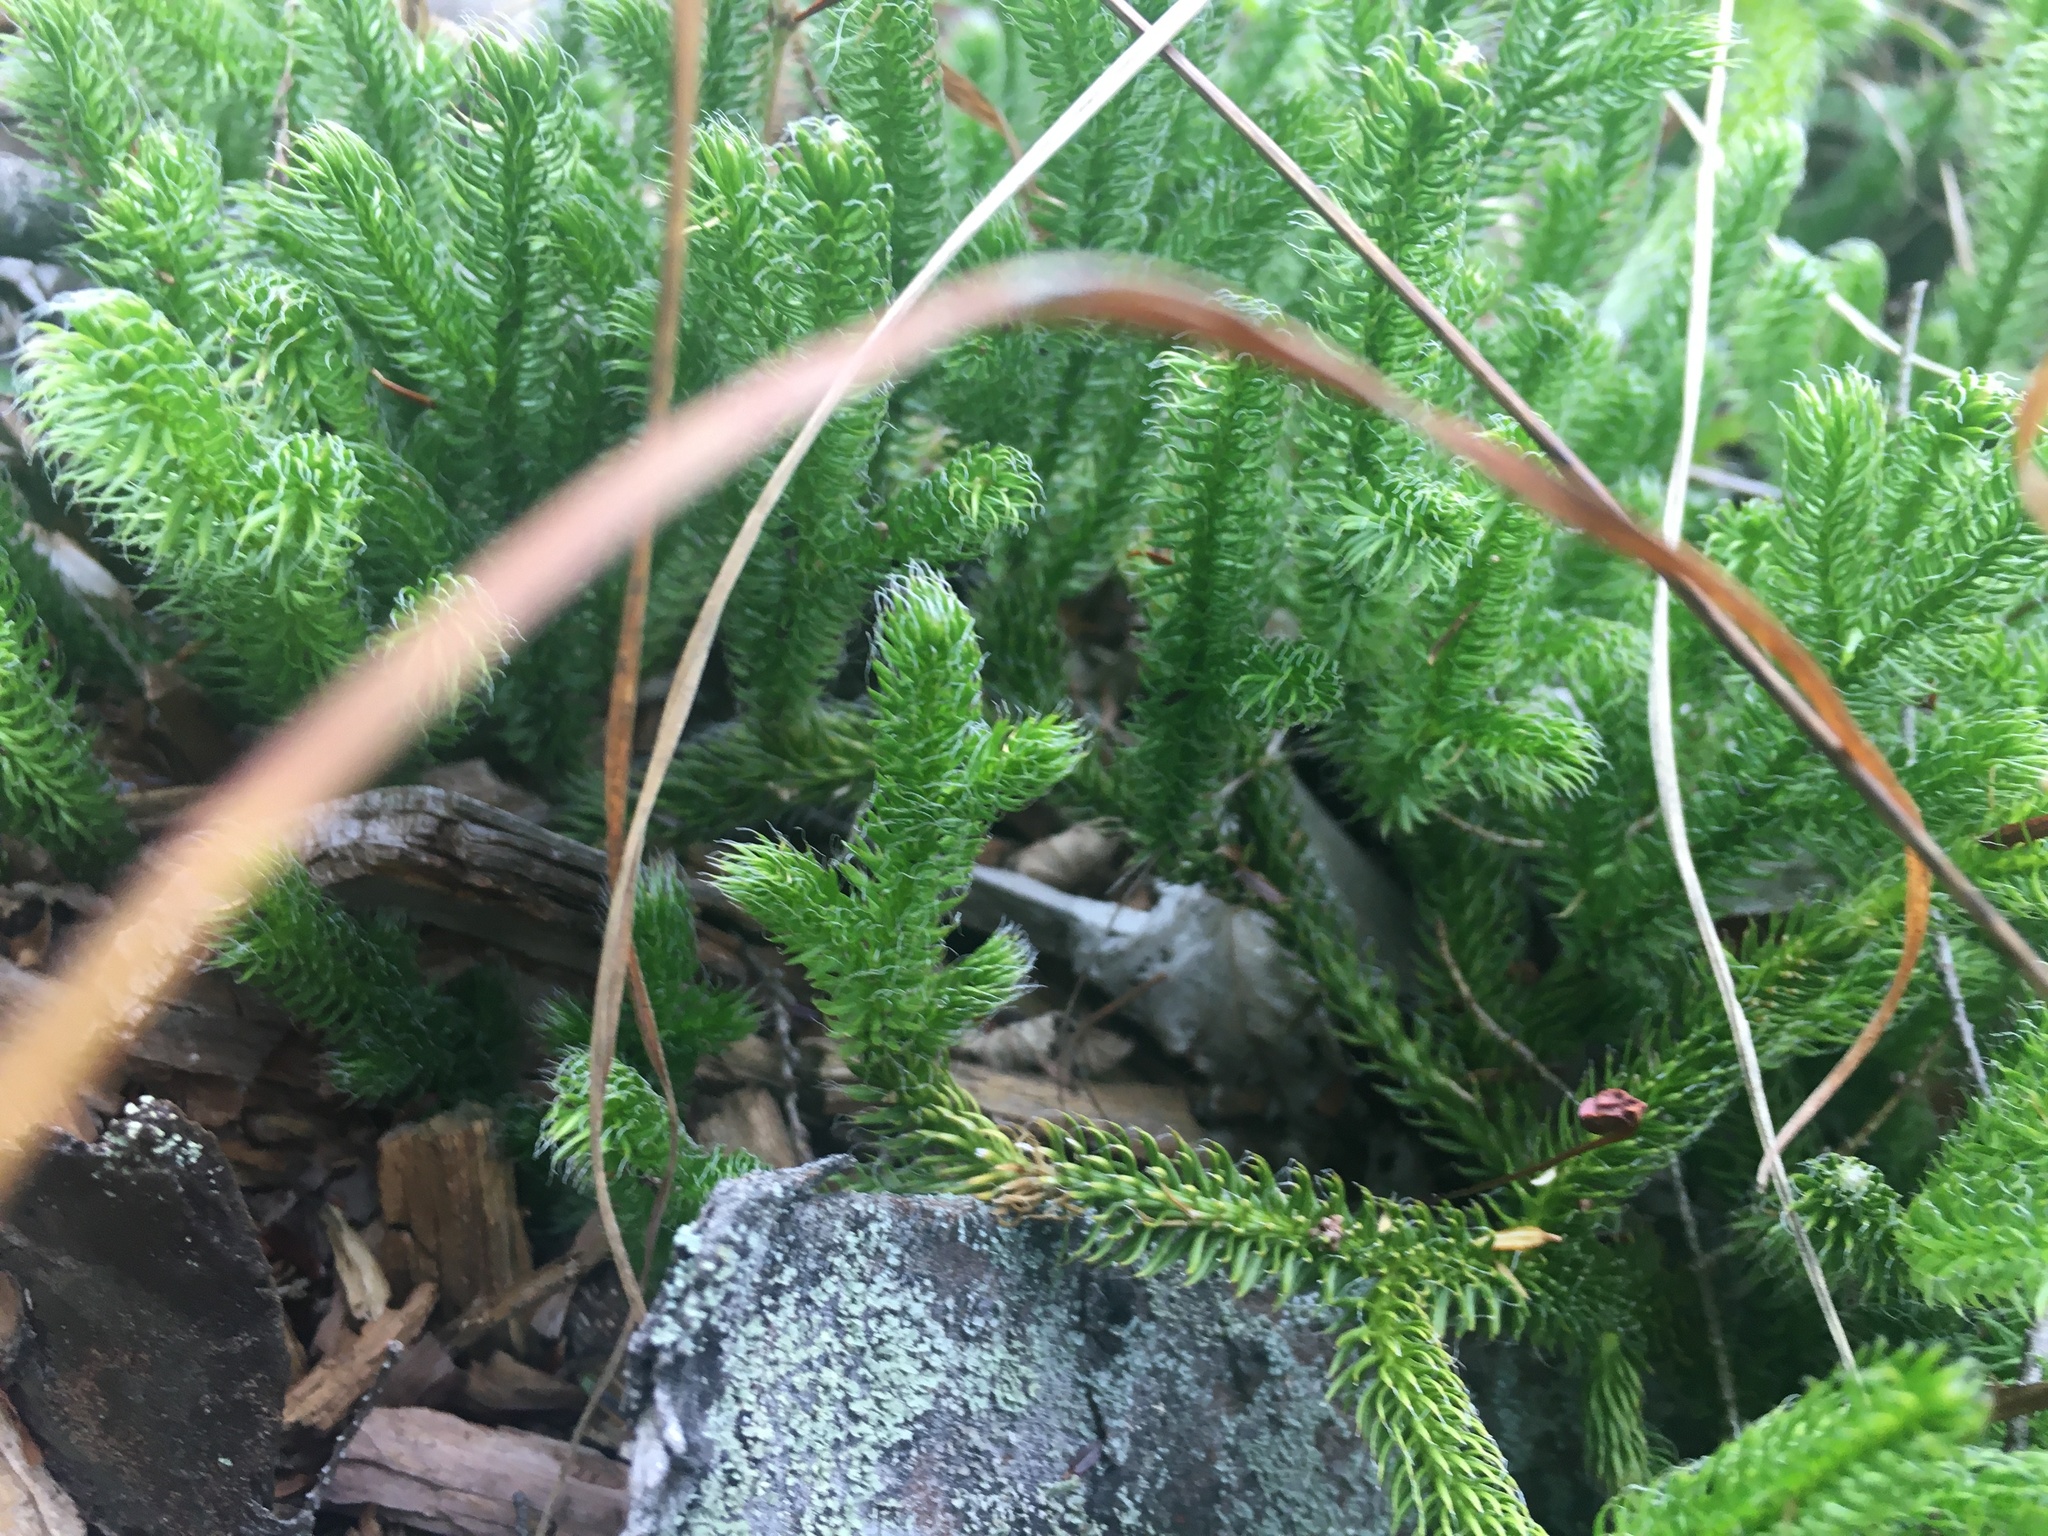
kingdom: Plantae
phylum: Tracheophyta
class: Lycopodiopsida
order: Lycopodiales
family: Lycopodiaceae
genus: Lycopodium
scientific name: Lycopodium clavatum
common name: Stag's-horn clubmoss
